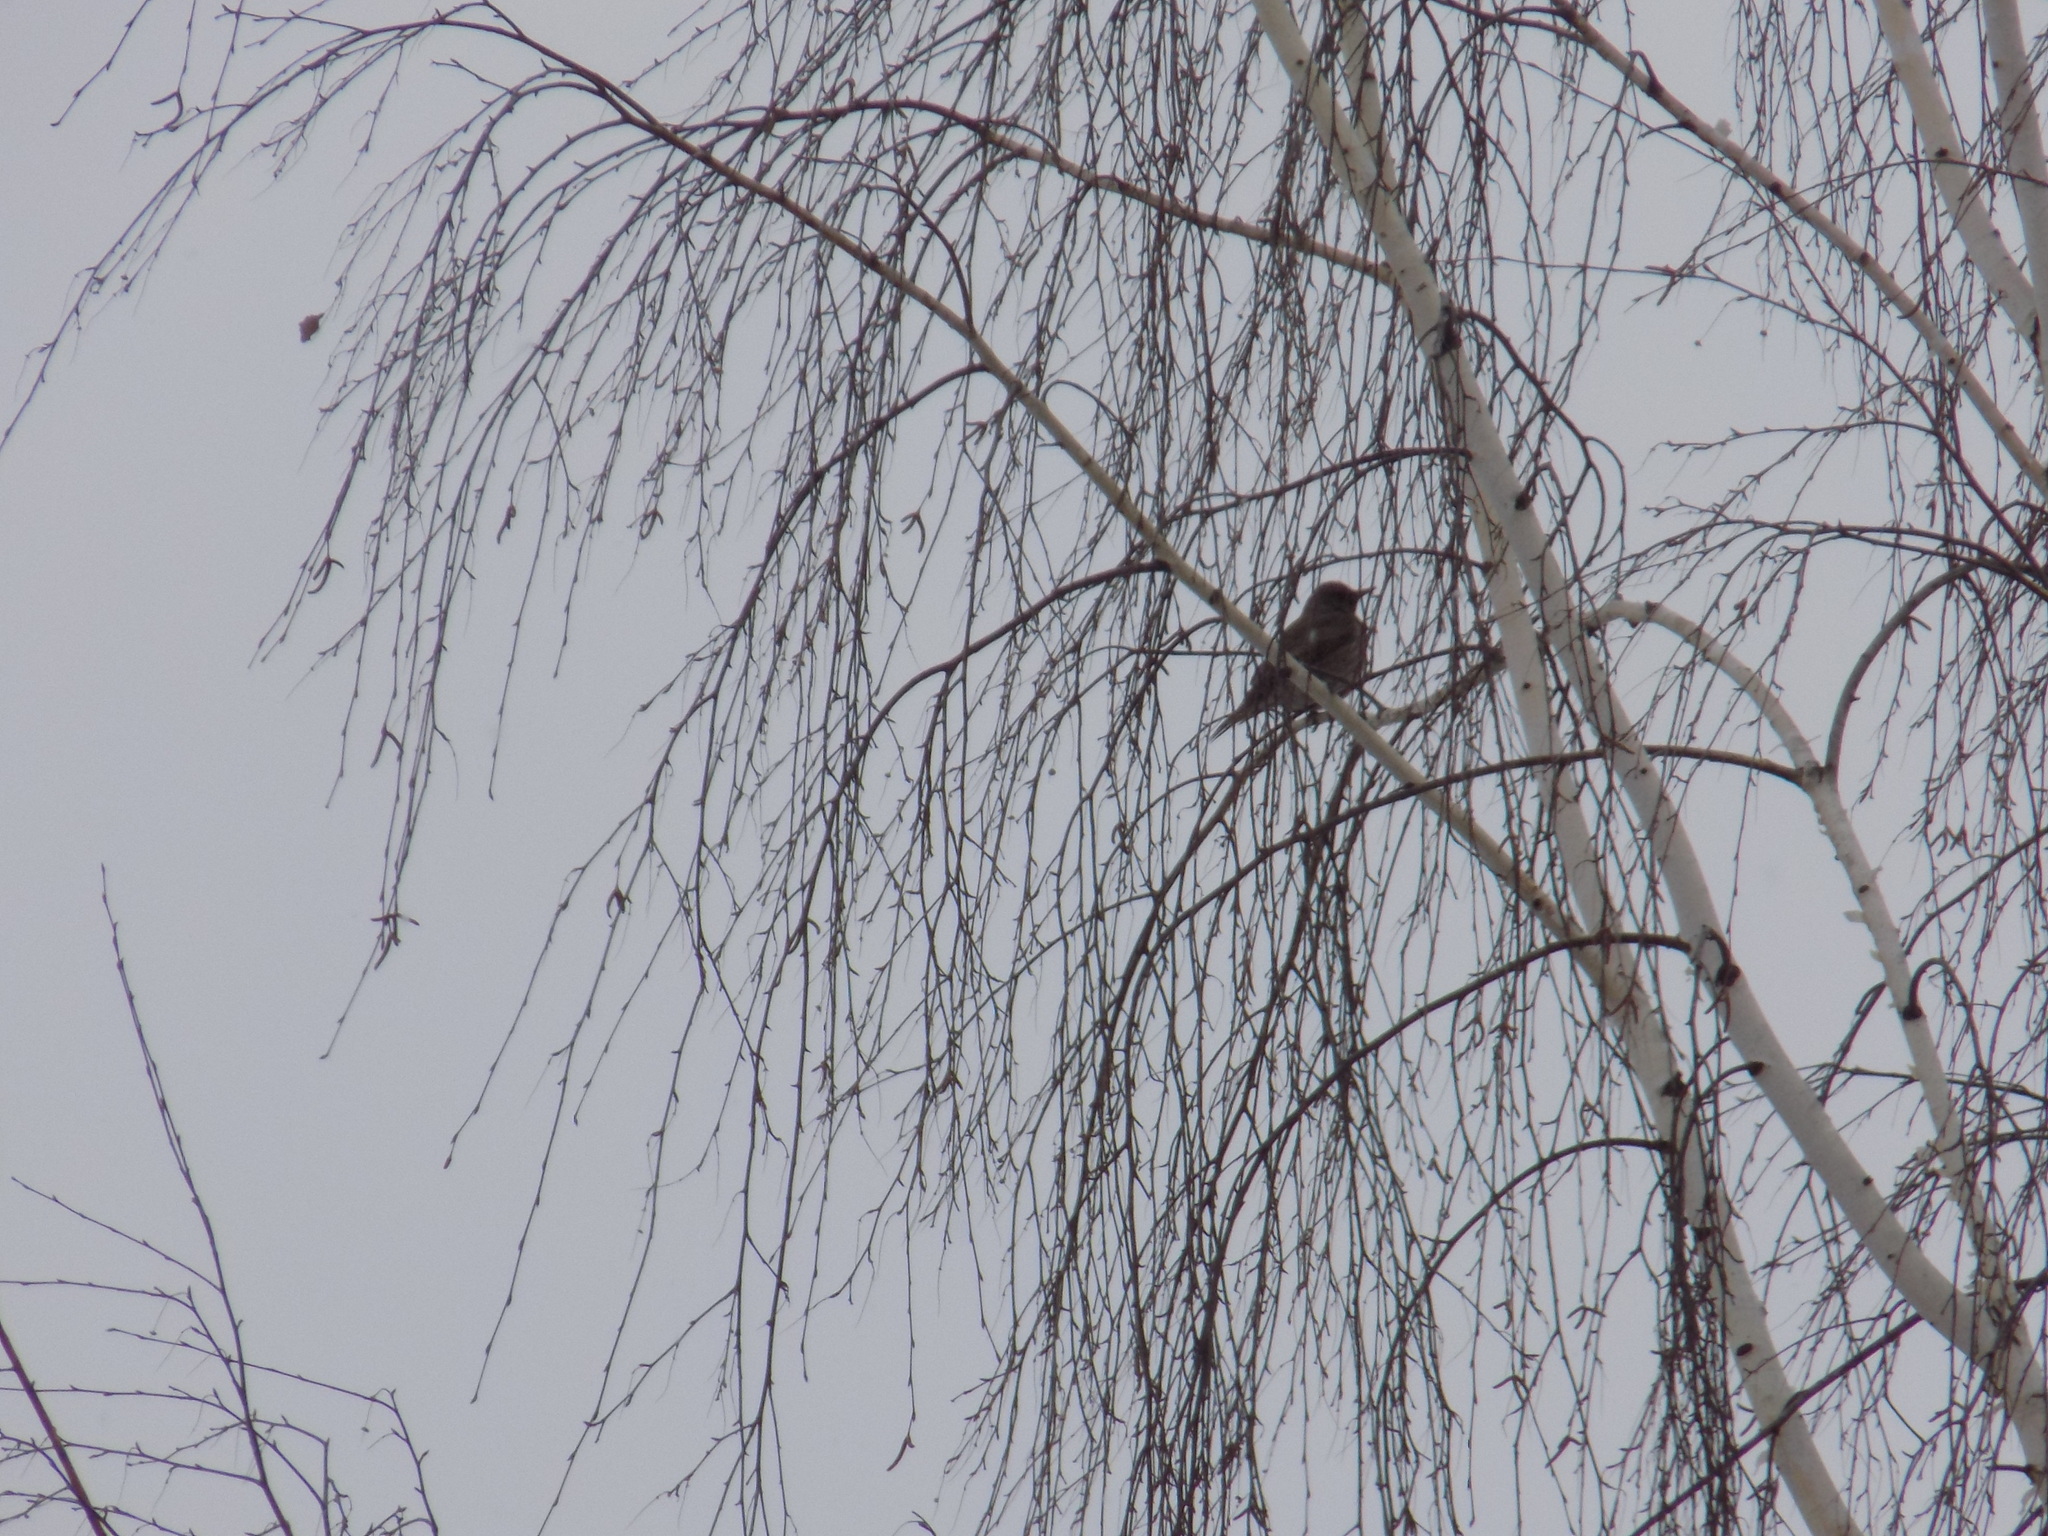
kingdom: Animalia
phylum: Chordata
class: Aves
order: Passeriformes
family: Turdidae
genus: Turdus
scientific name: Turdus atrogularis
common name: Black-throated thrush
